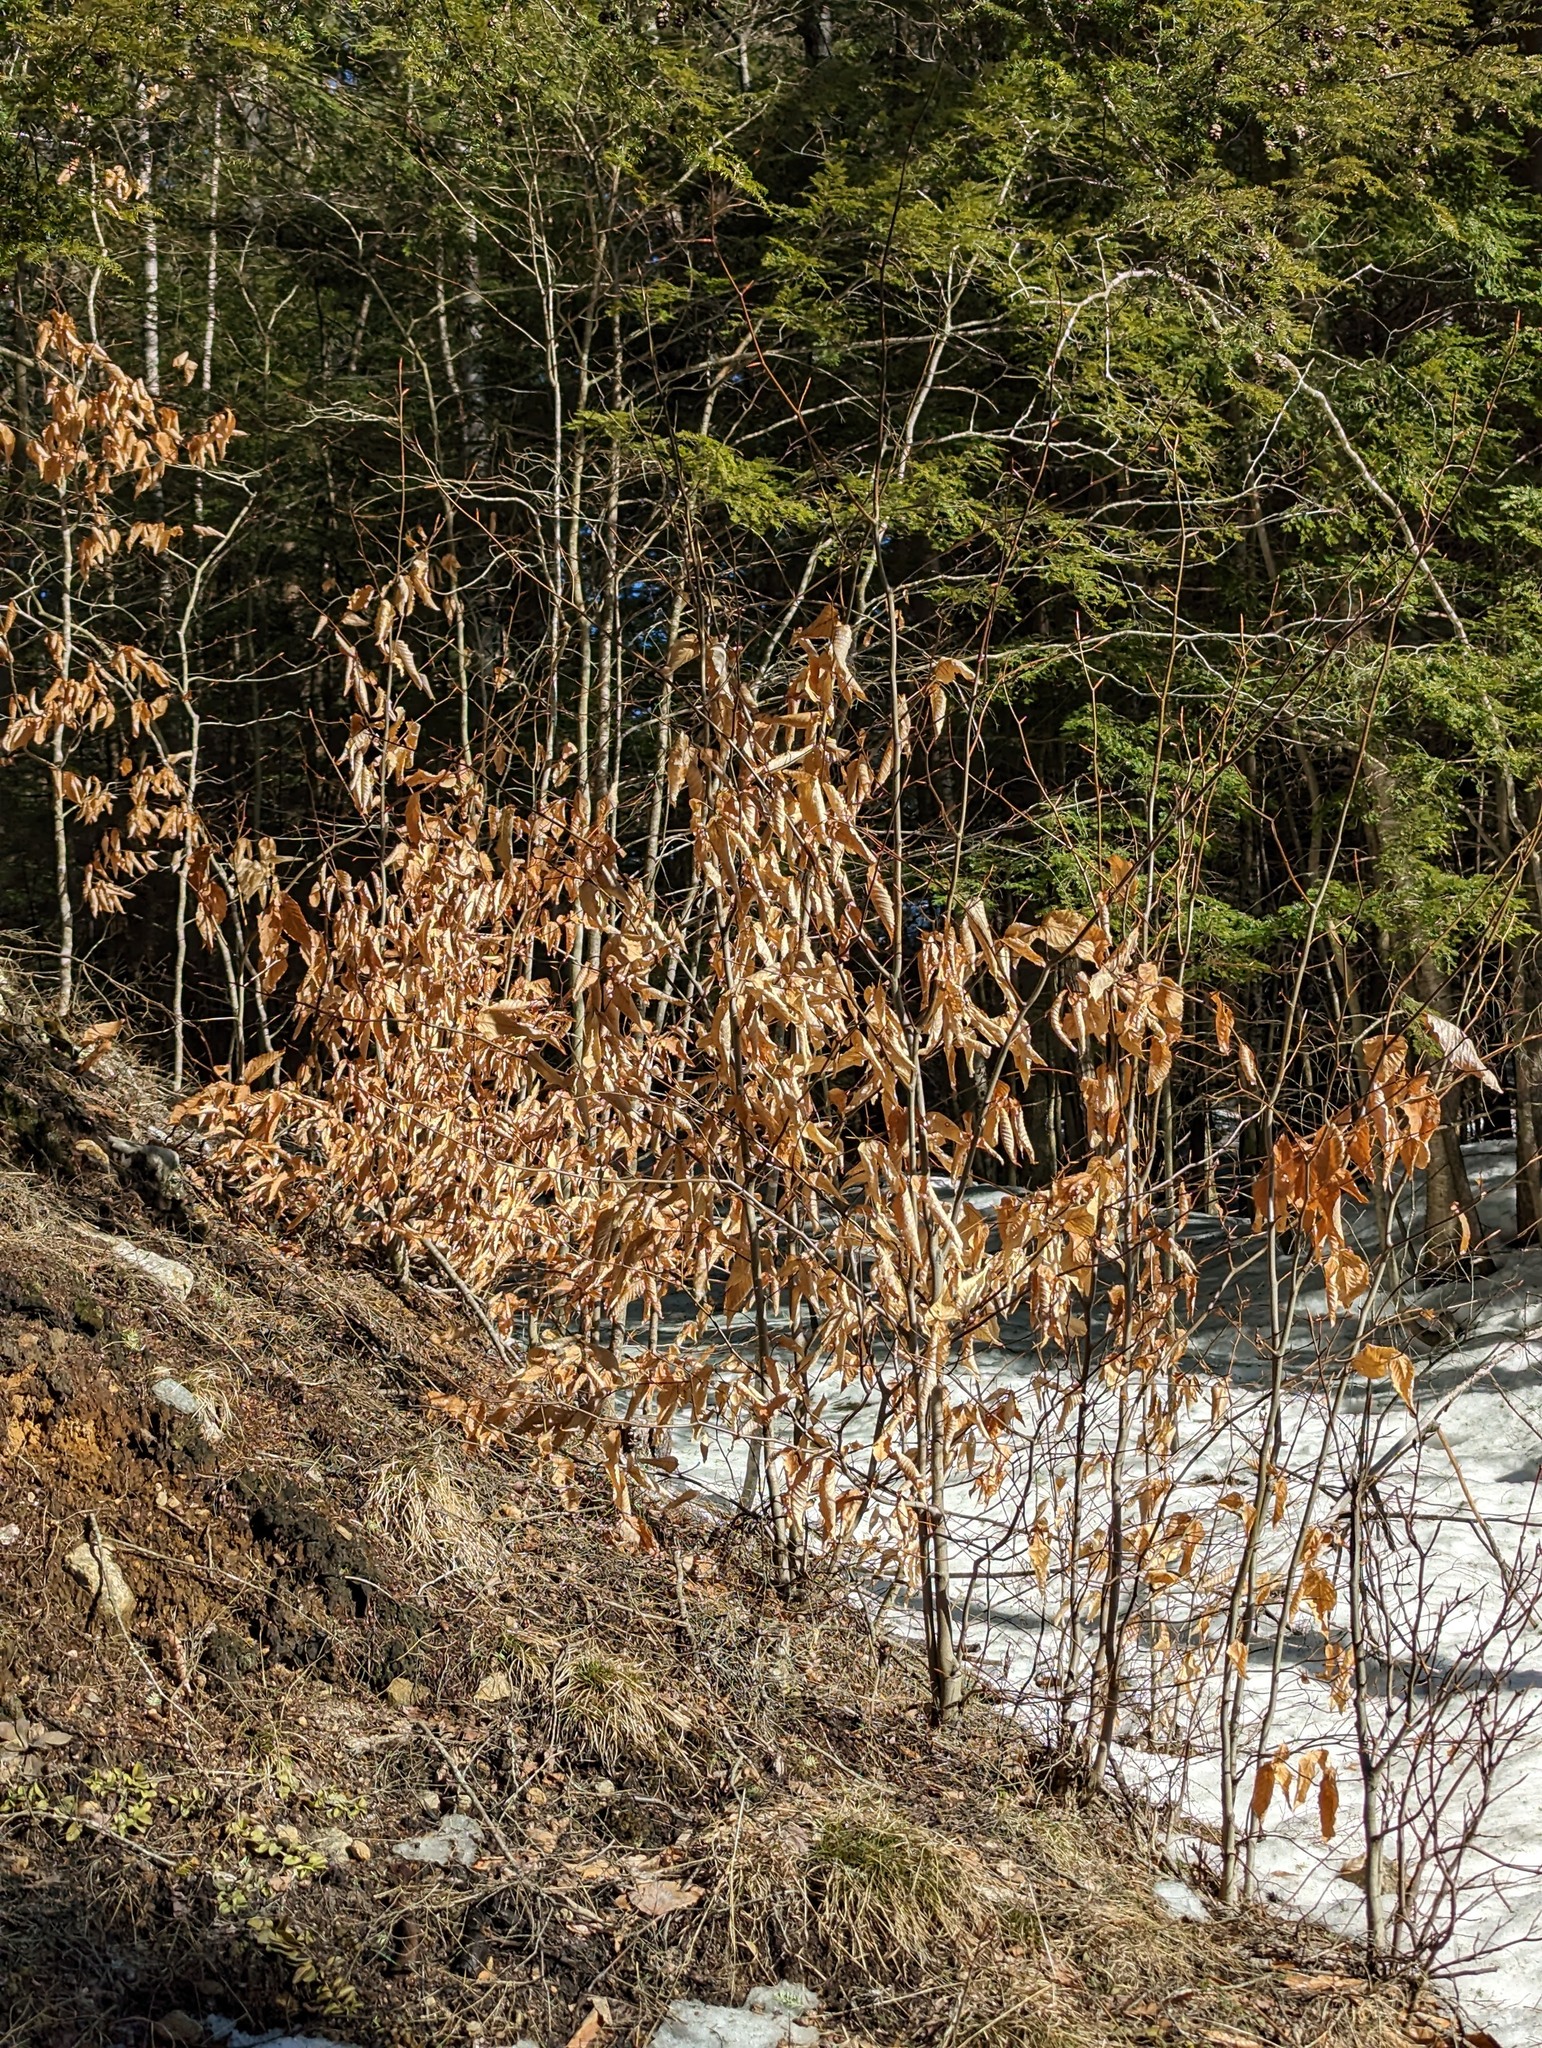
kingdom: Plantae
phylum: Tracheophyta
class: Magnoliopsida
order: Fagales
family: Fagaceae
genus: Fagus
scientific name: Fagus grandifolia
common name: American beech
